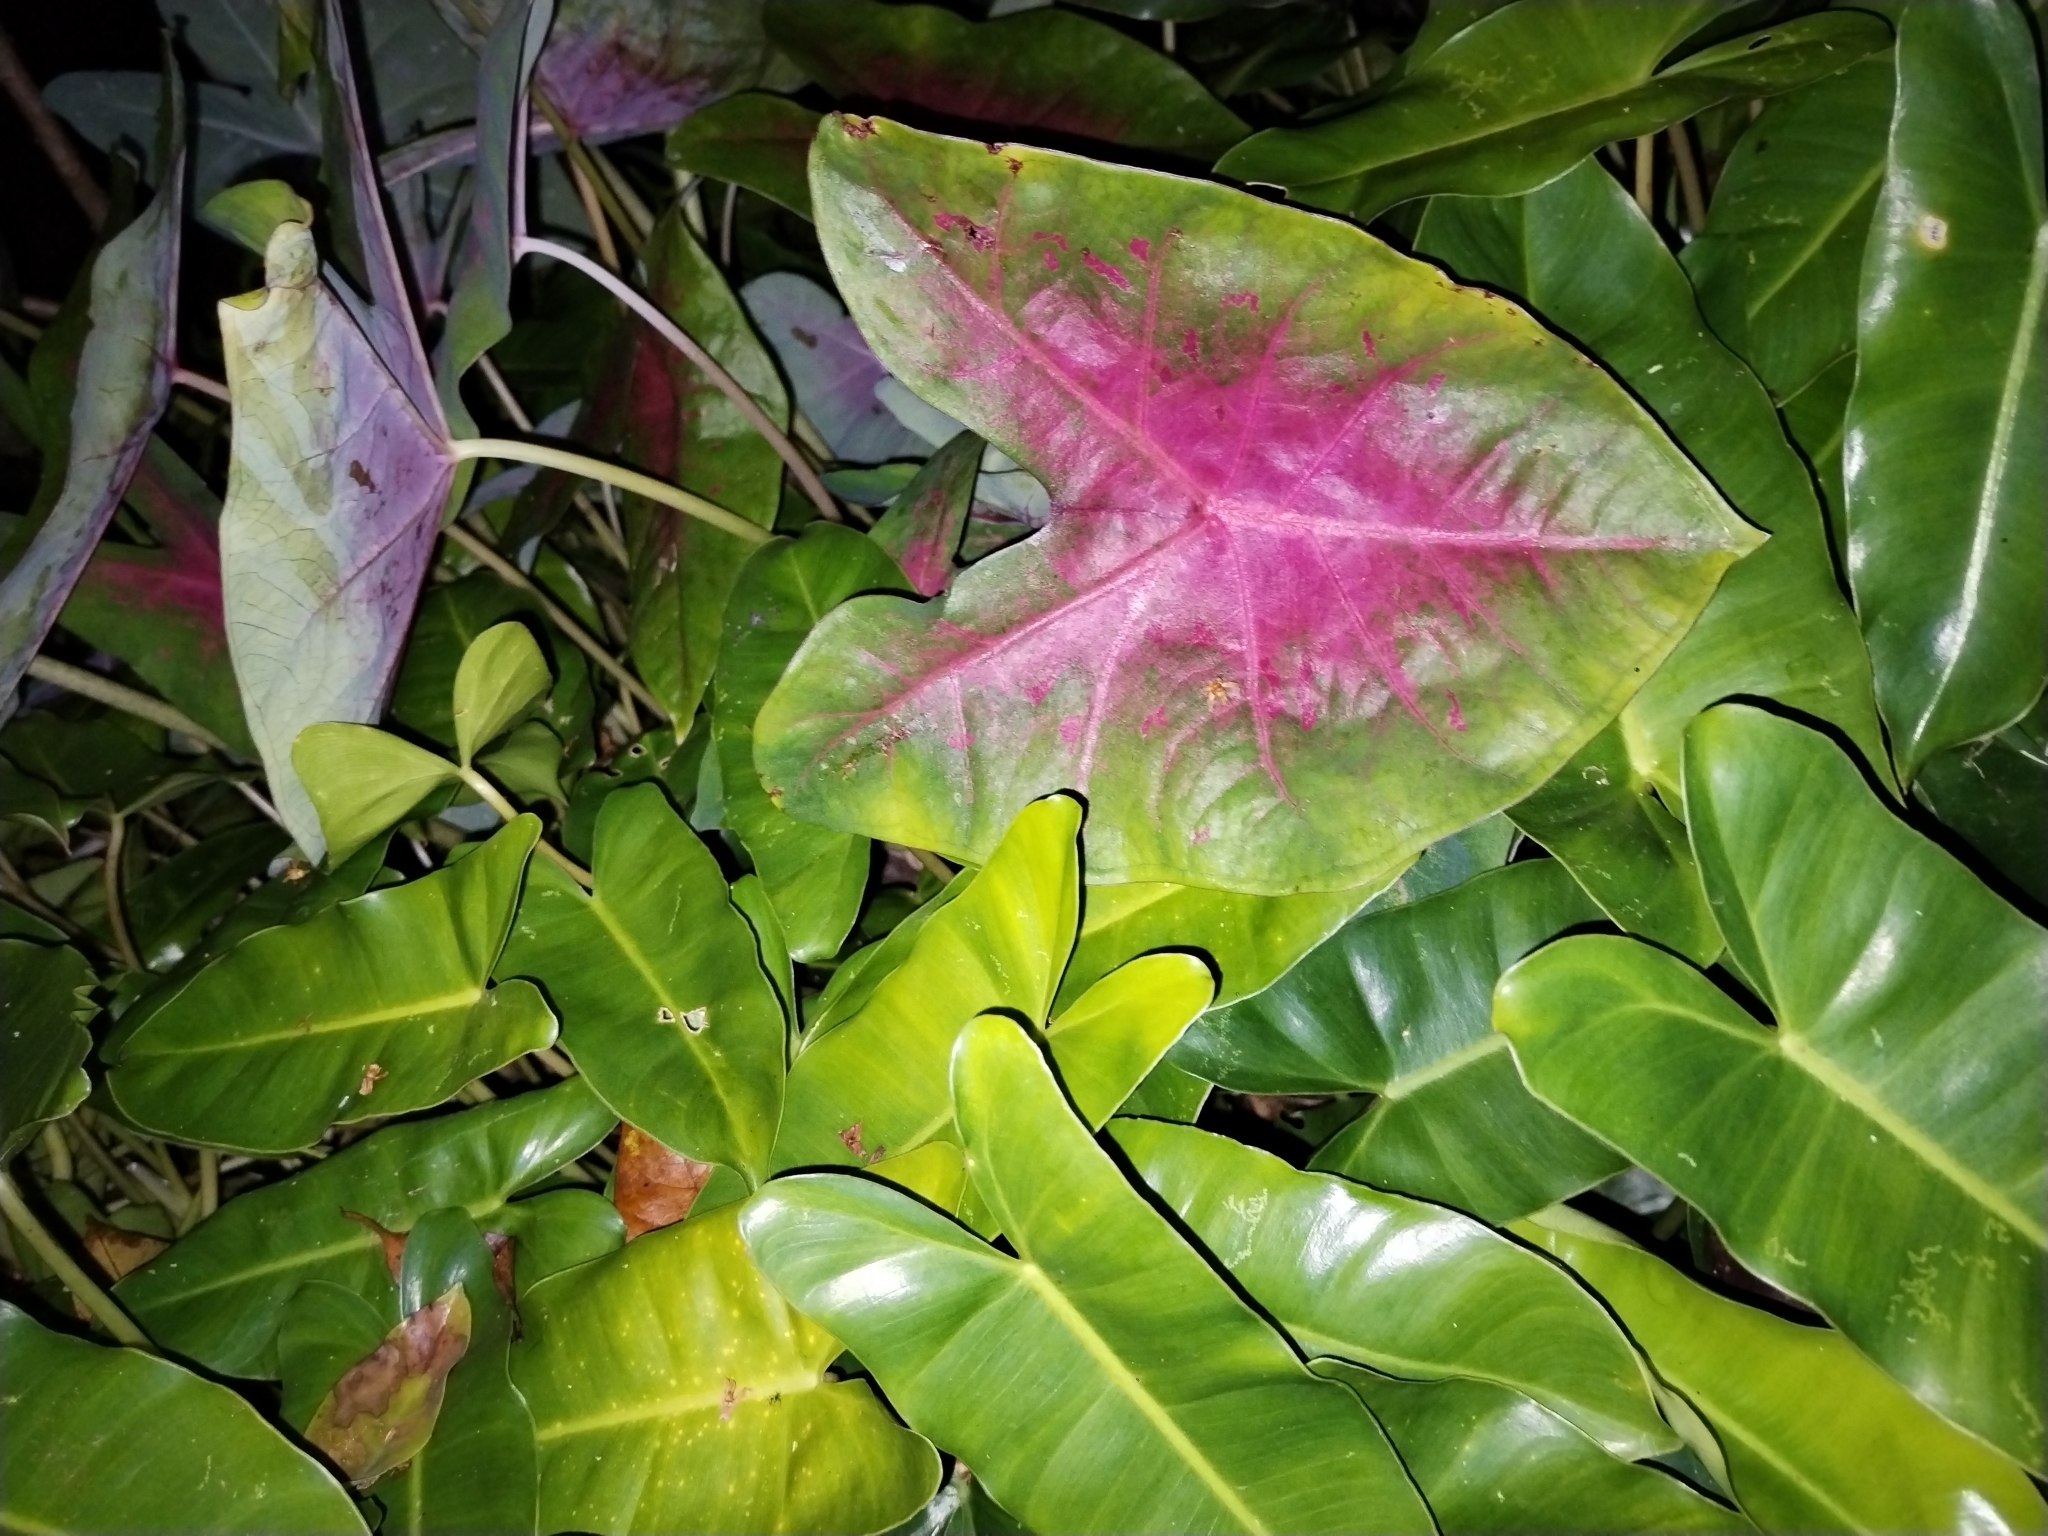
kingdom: Plantae
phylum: Tracheophyta
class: Liliopsida
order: Alismatales
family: Araceae
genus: Caladium
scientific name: Caladium bicolor
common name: Artist's pallet
